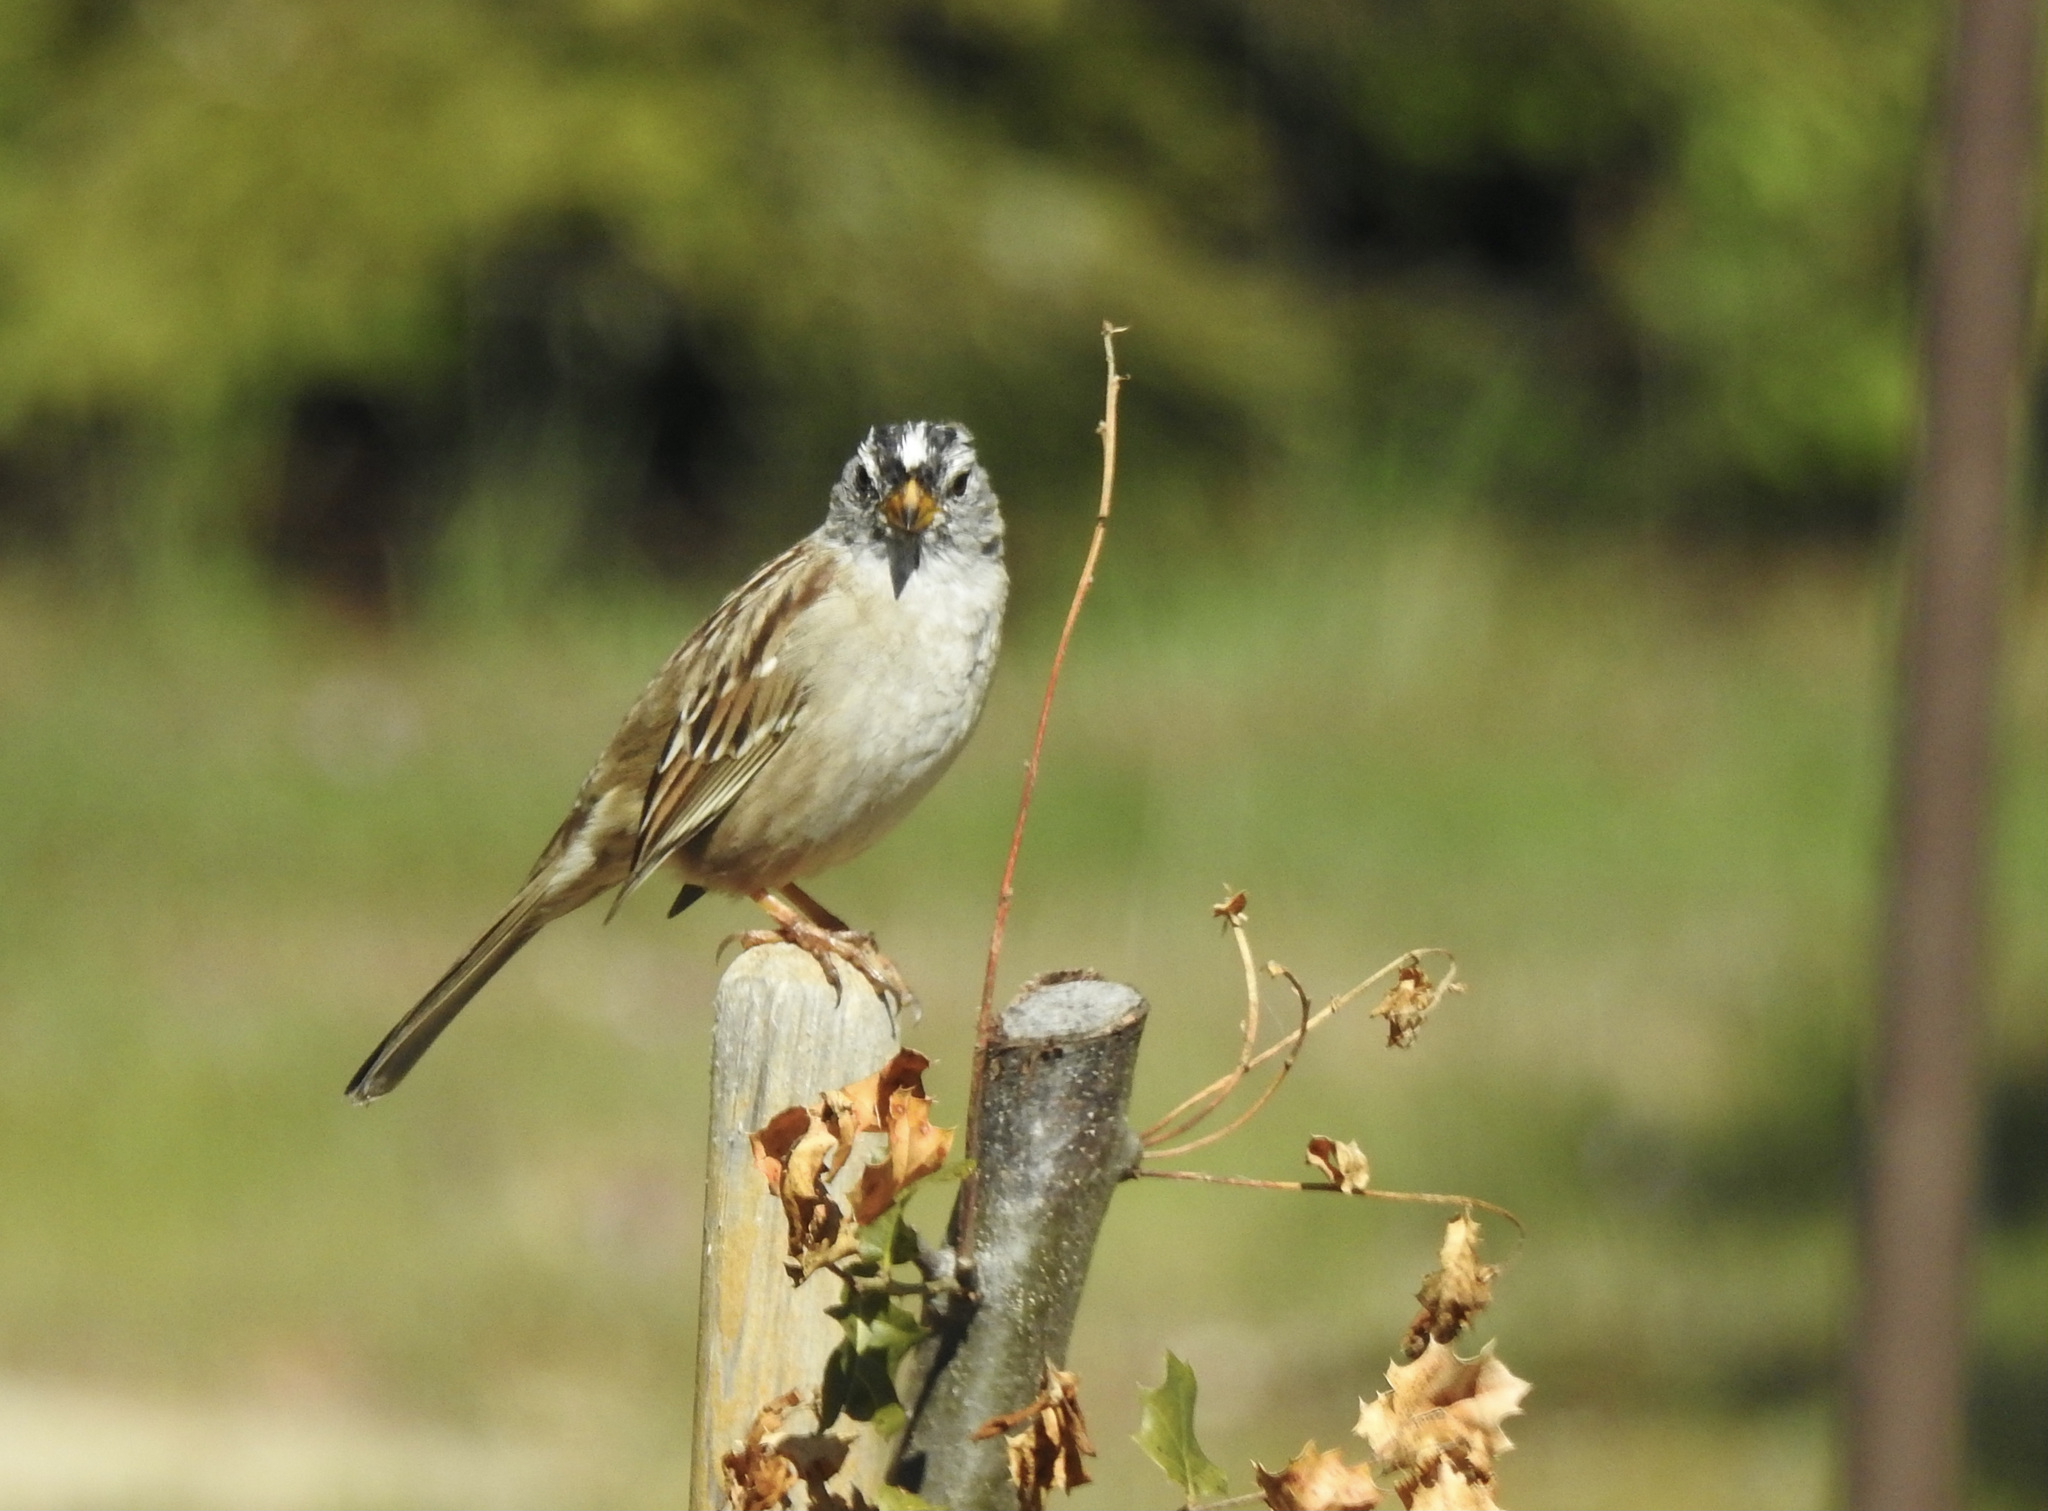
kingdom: Animalia
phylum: Chordata
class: Aves
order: Passeriformes
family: Passerellidae
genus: Zonotrichia
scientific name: Zonotrichia leucophrys
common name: White-crowned sparrow
